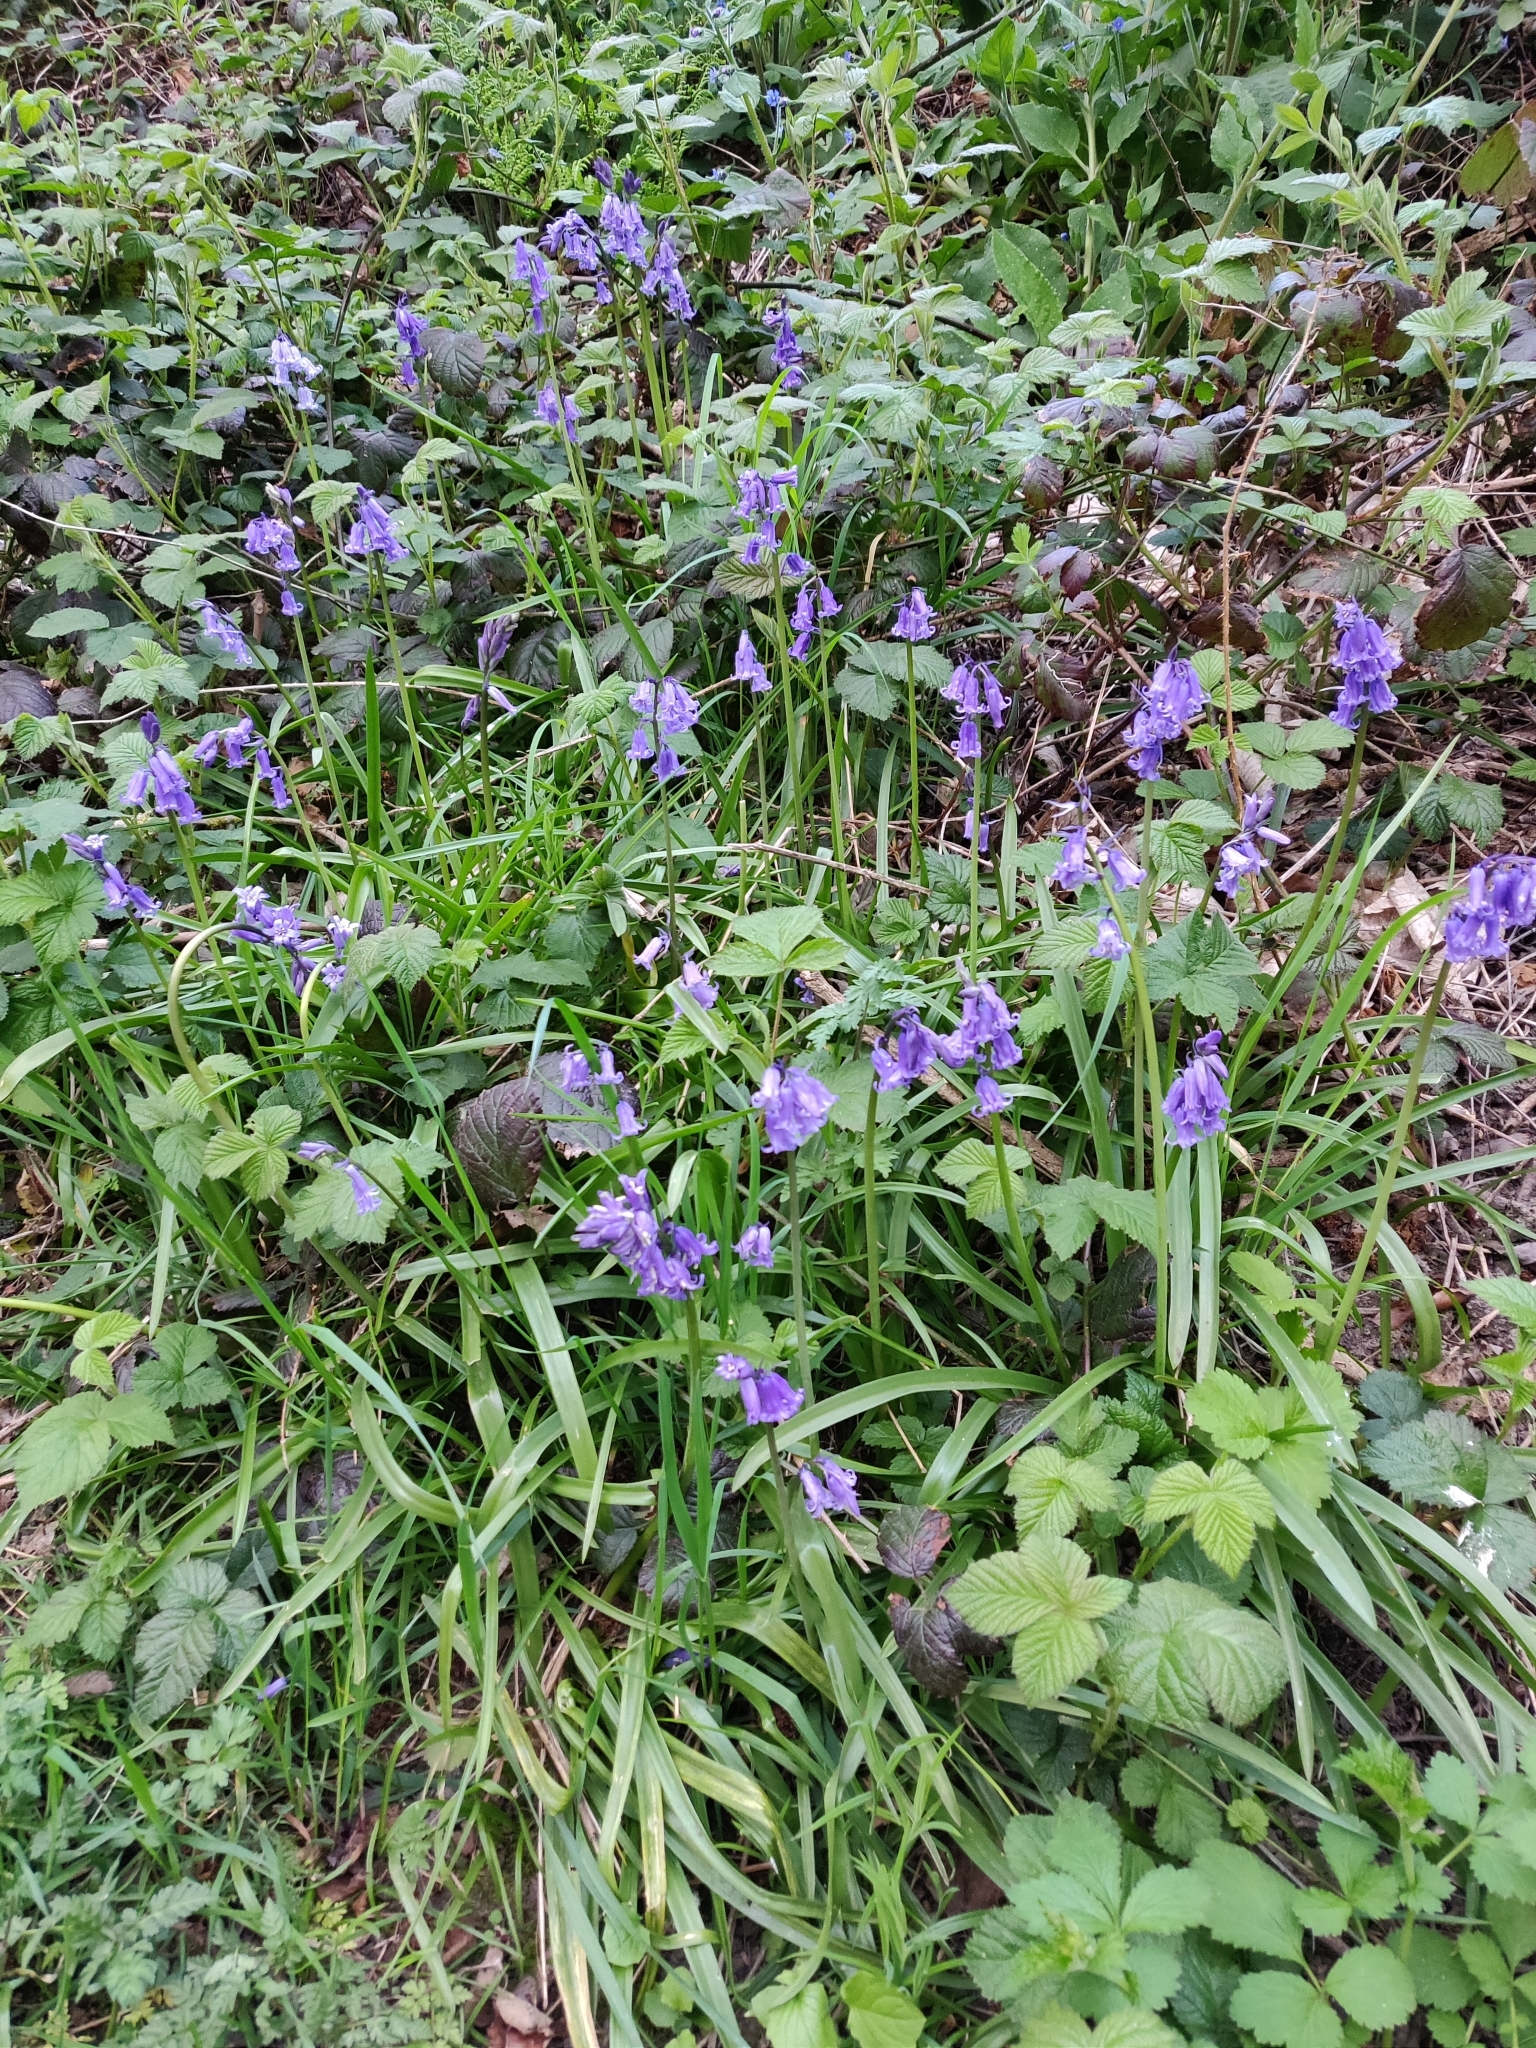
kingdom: Plantae
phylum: Tracheophyta
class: Liliopsida
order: Asparagales
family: Asparagaceae
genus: Hyacinthoides
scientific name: Hyacinthoides non-scripta
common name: Bluebell
